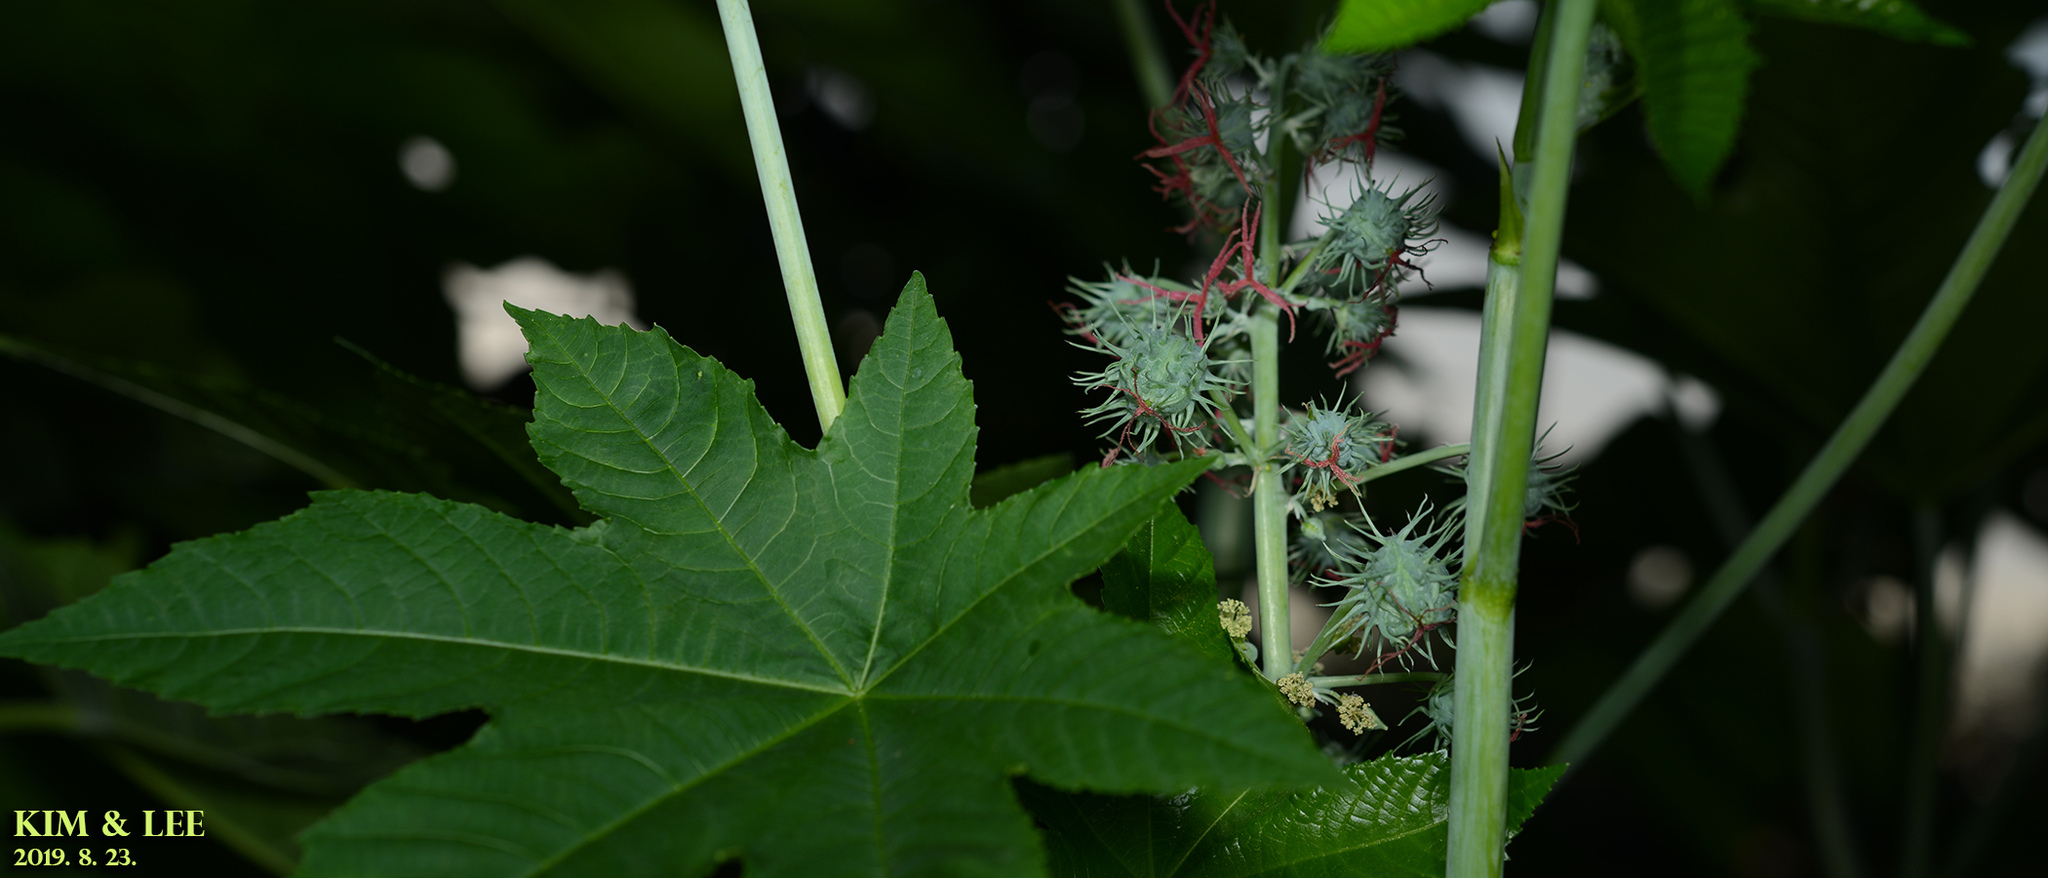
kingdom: Plantae
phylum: Tracheophyta
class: Magnoliopsida
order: Malpighiales
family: Euphorbiaceae
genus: Ricinus
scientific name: Ricinus communis
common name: Castor-oil-plant
